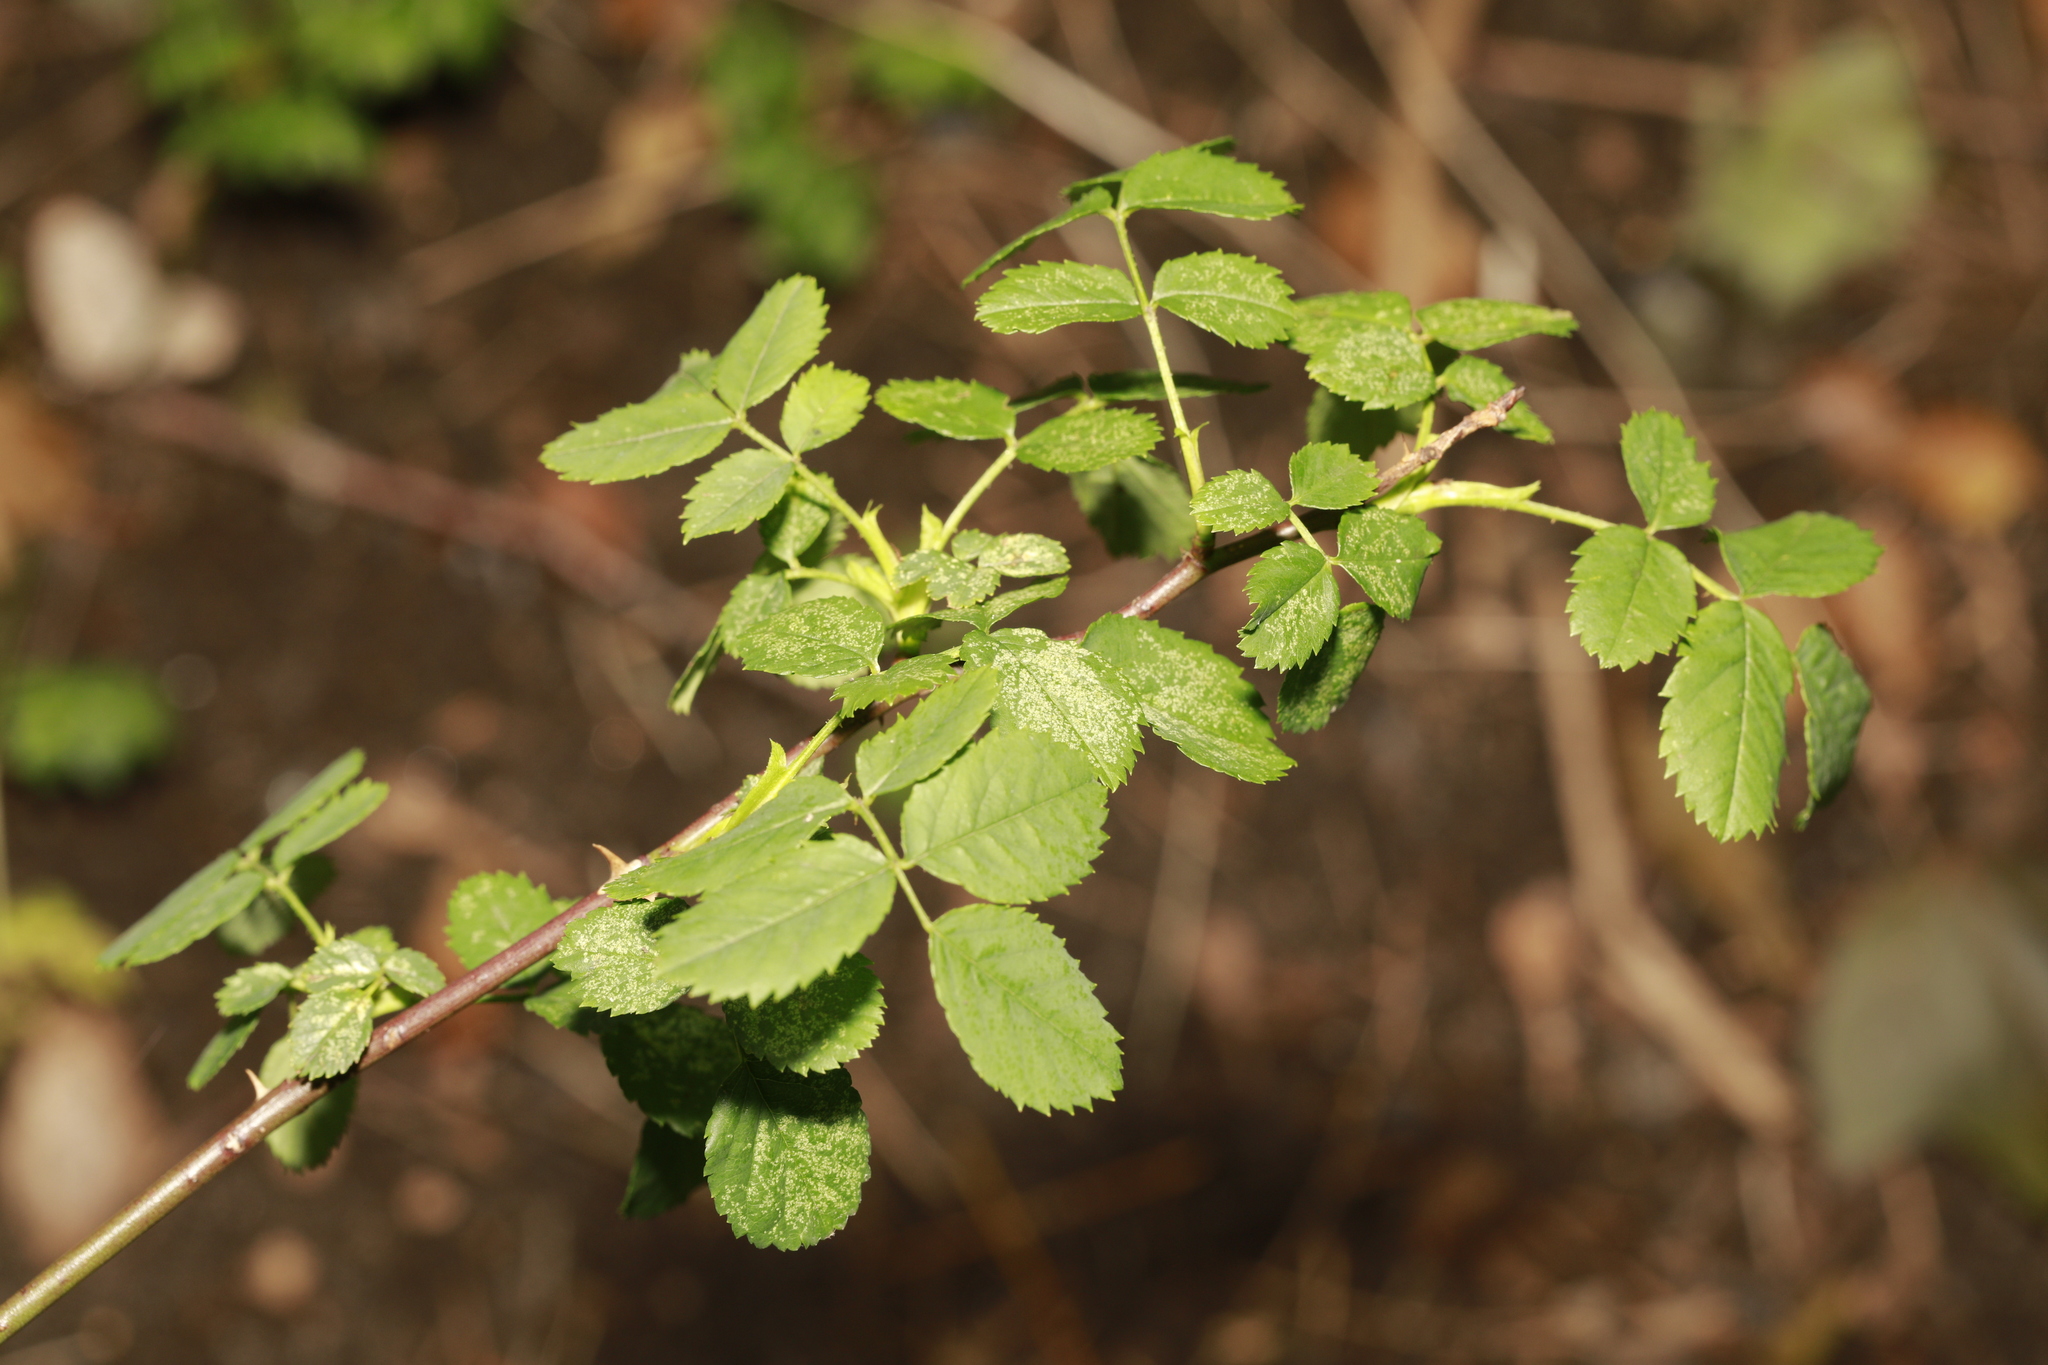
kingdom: Plantae
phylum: Tracheophyta
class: Magnoliopsida
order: Rosales
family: Rosaceae
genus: Rosa
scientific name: Rosa canina
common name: Dog rose
